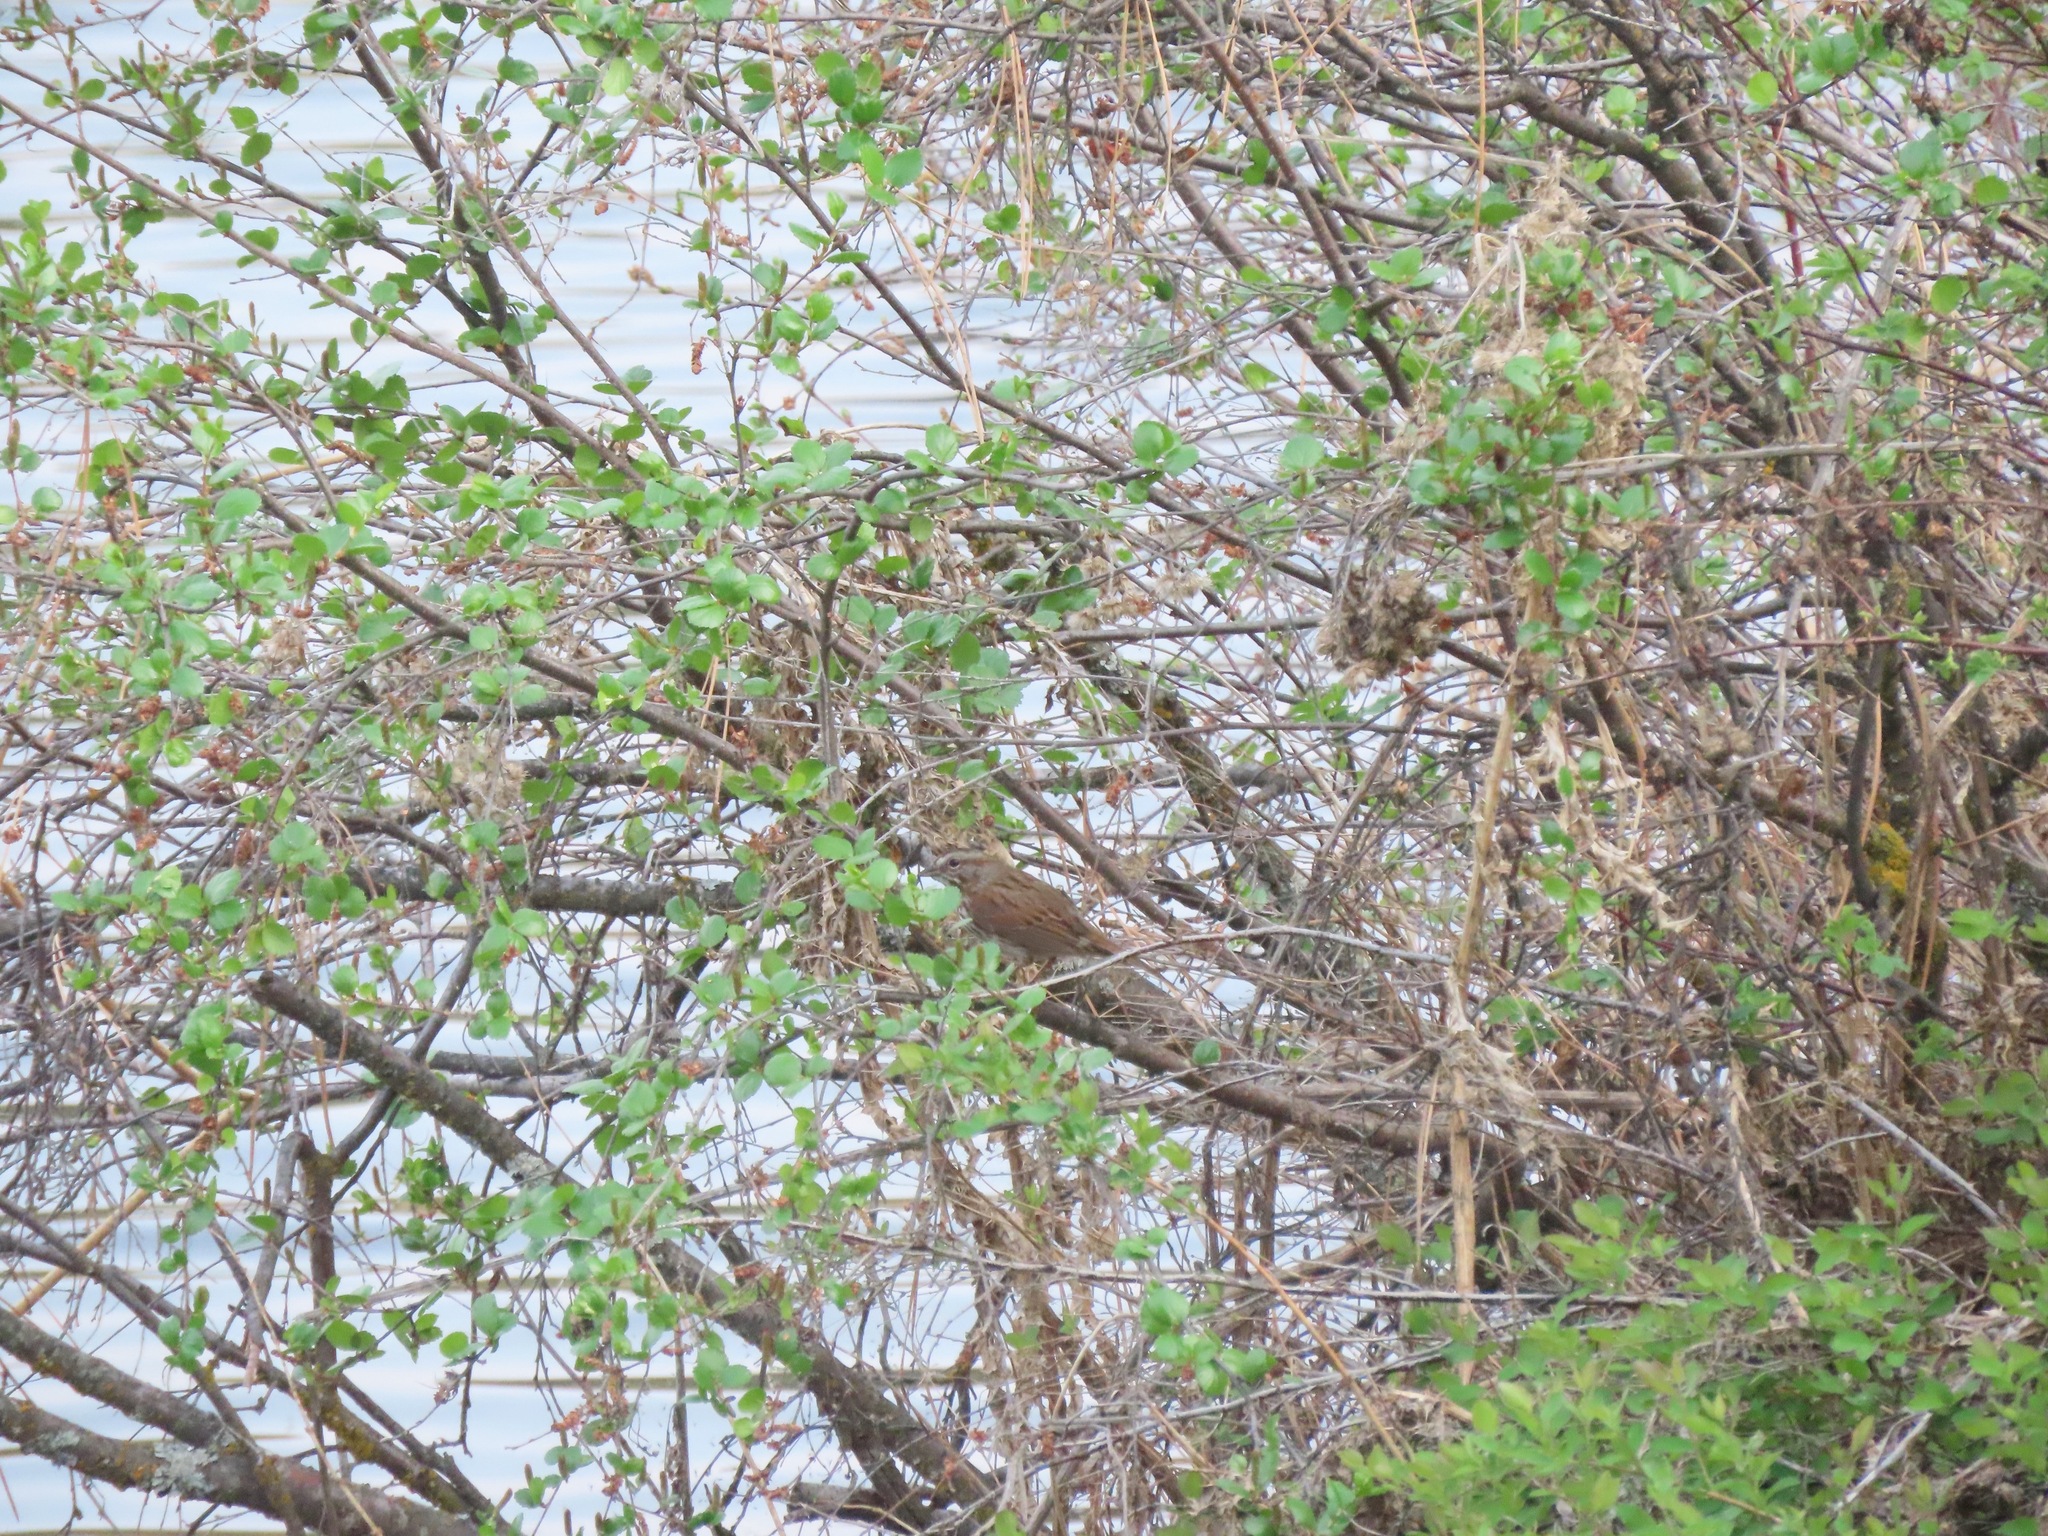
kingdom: Animalia
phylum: Chordata
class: Aves
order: Passeriformes
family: Passerellidae
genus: Melospiza
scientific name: Melospiza melodia
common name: Song sparrow
